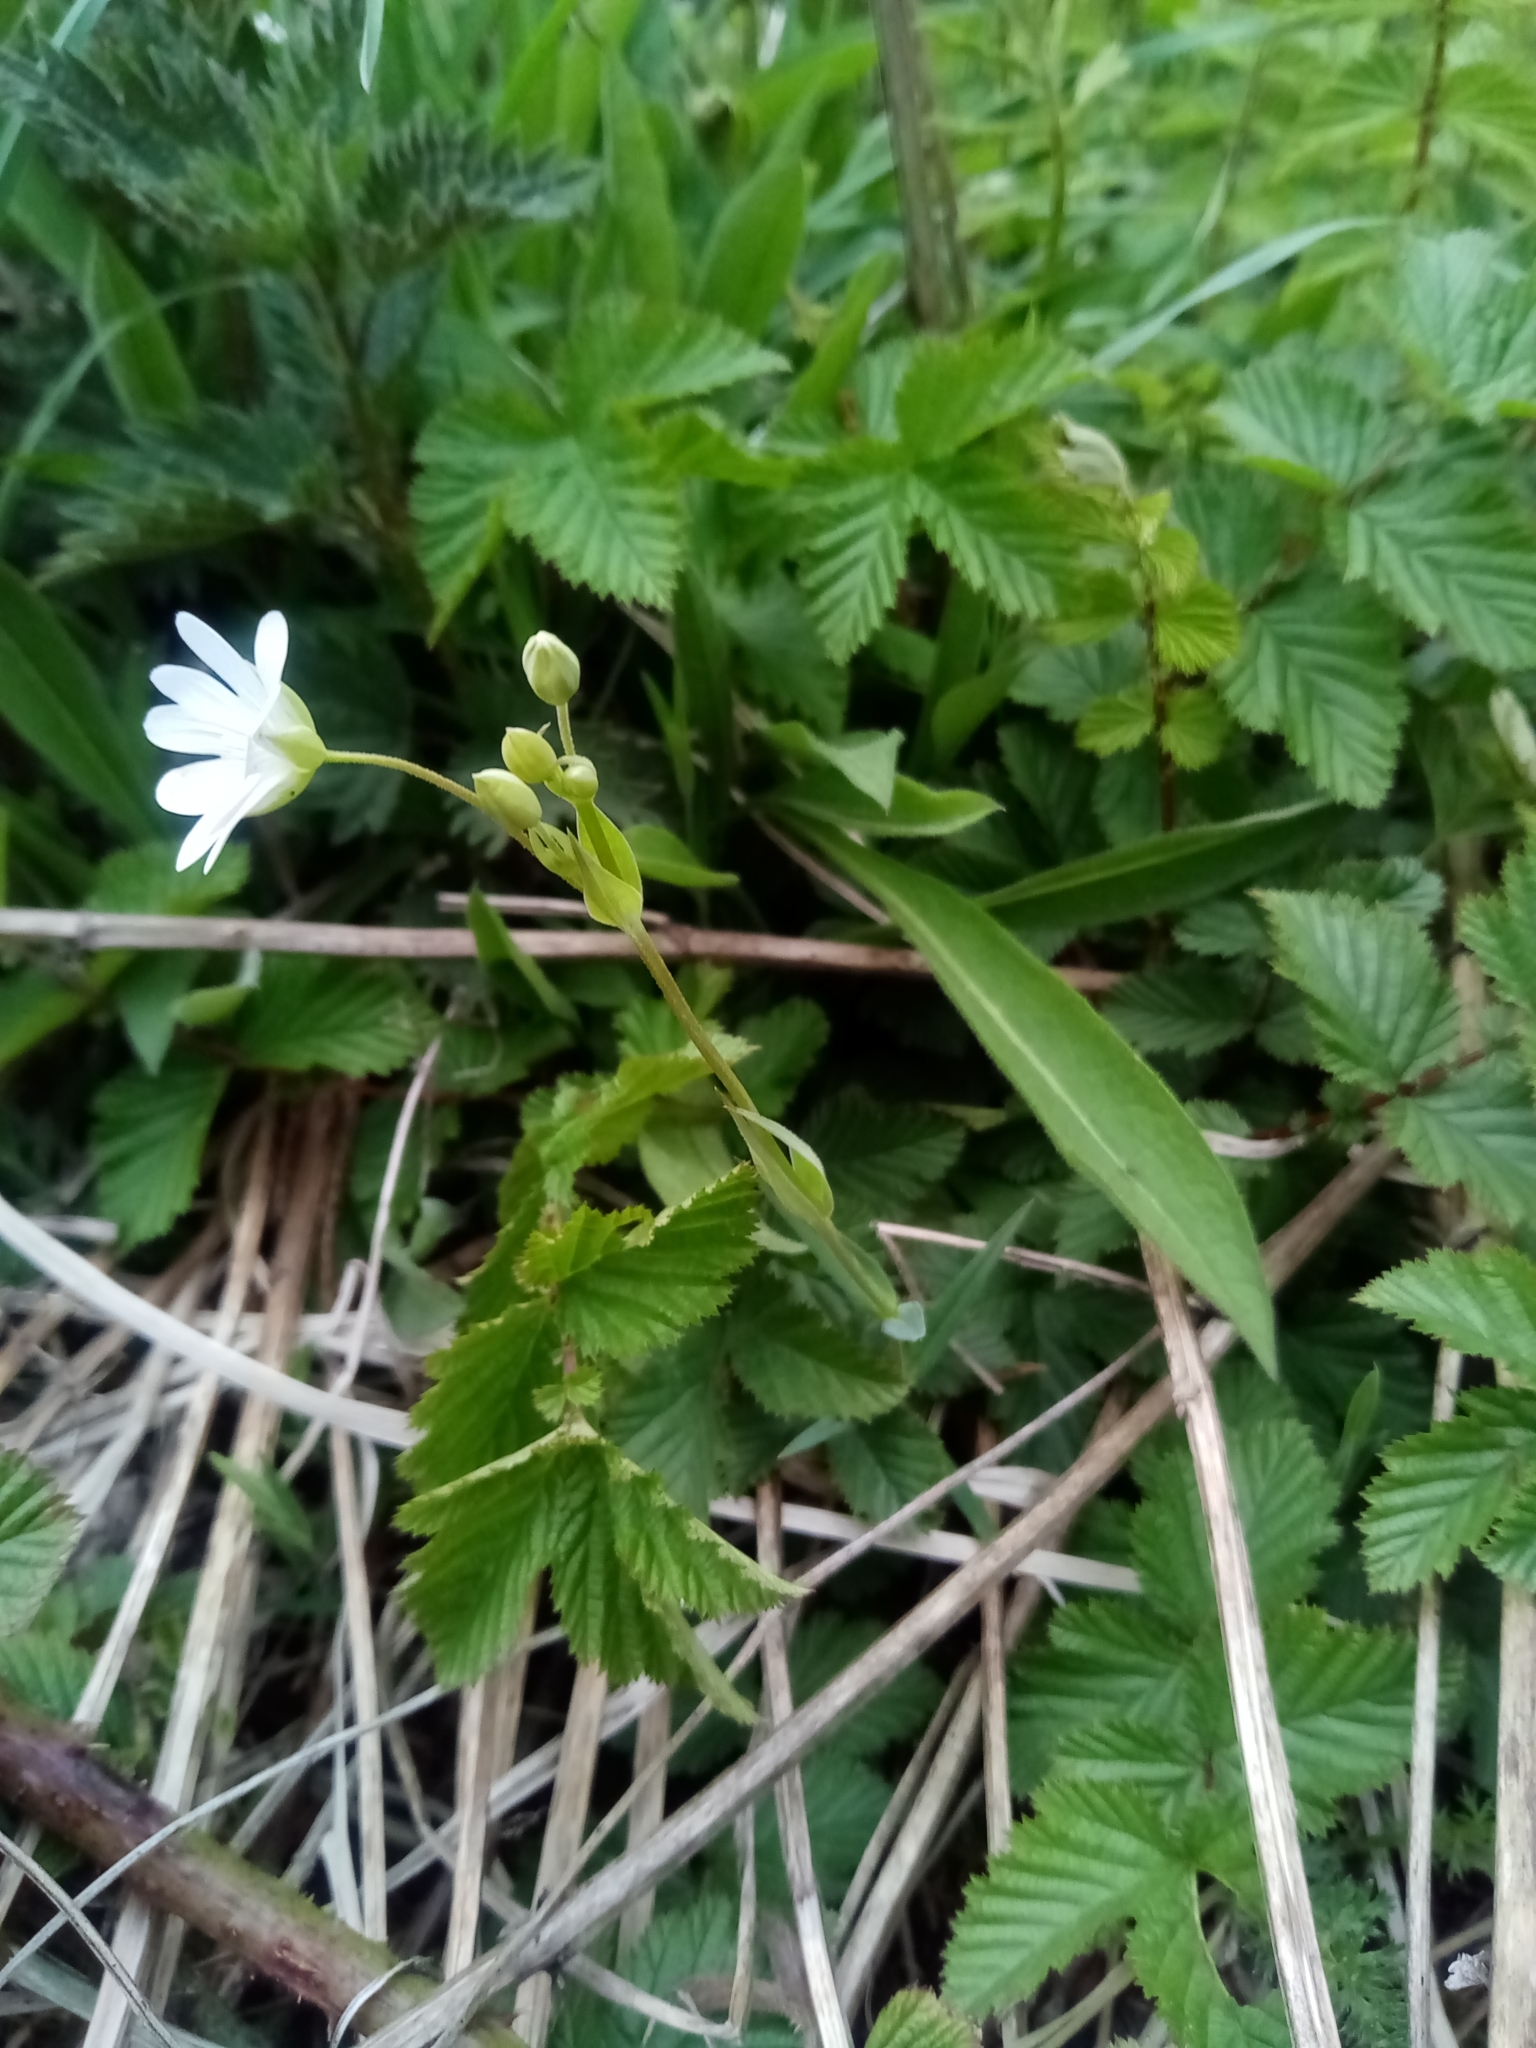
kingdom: Plantae
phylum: Tracheophyta
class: Magnoliopsida
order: Caryophyllales
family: Caryophyllaceae
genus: Rabelera
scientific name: Rabelera holostea
